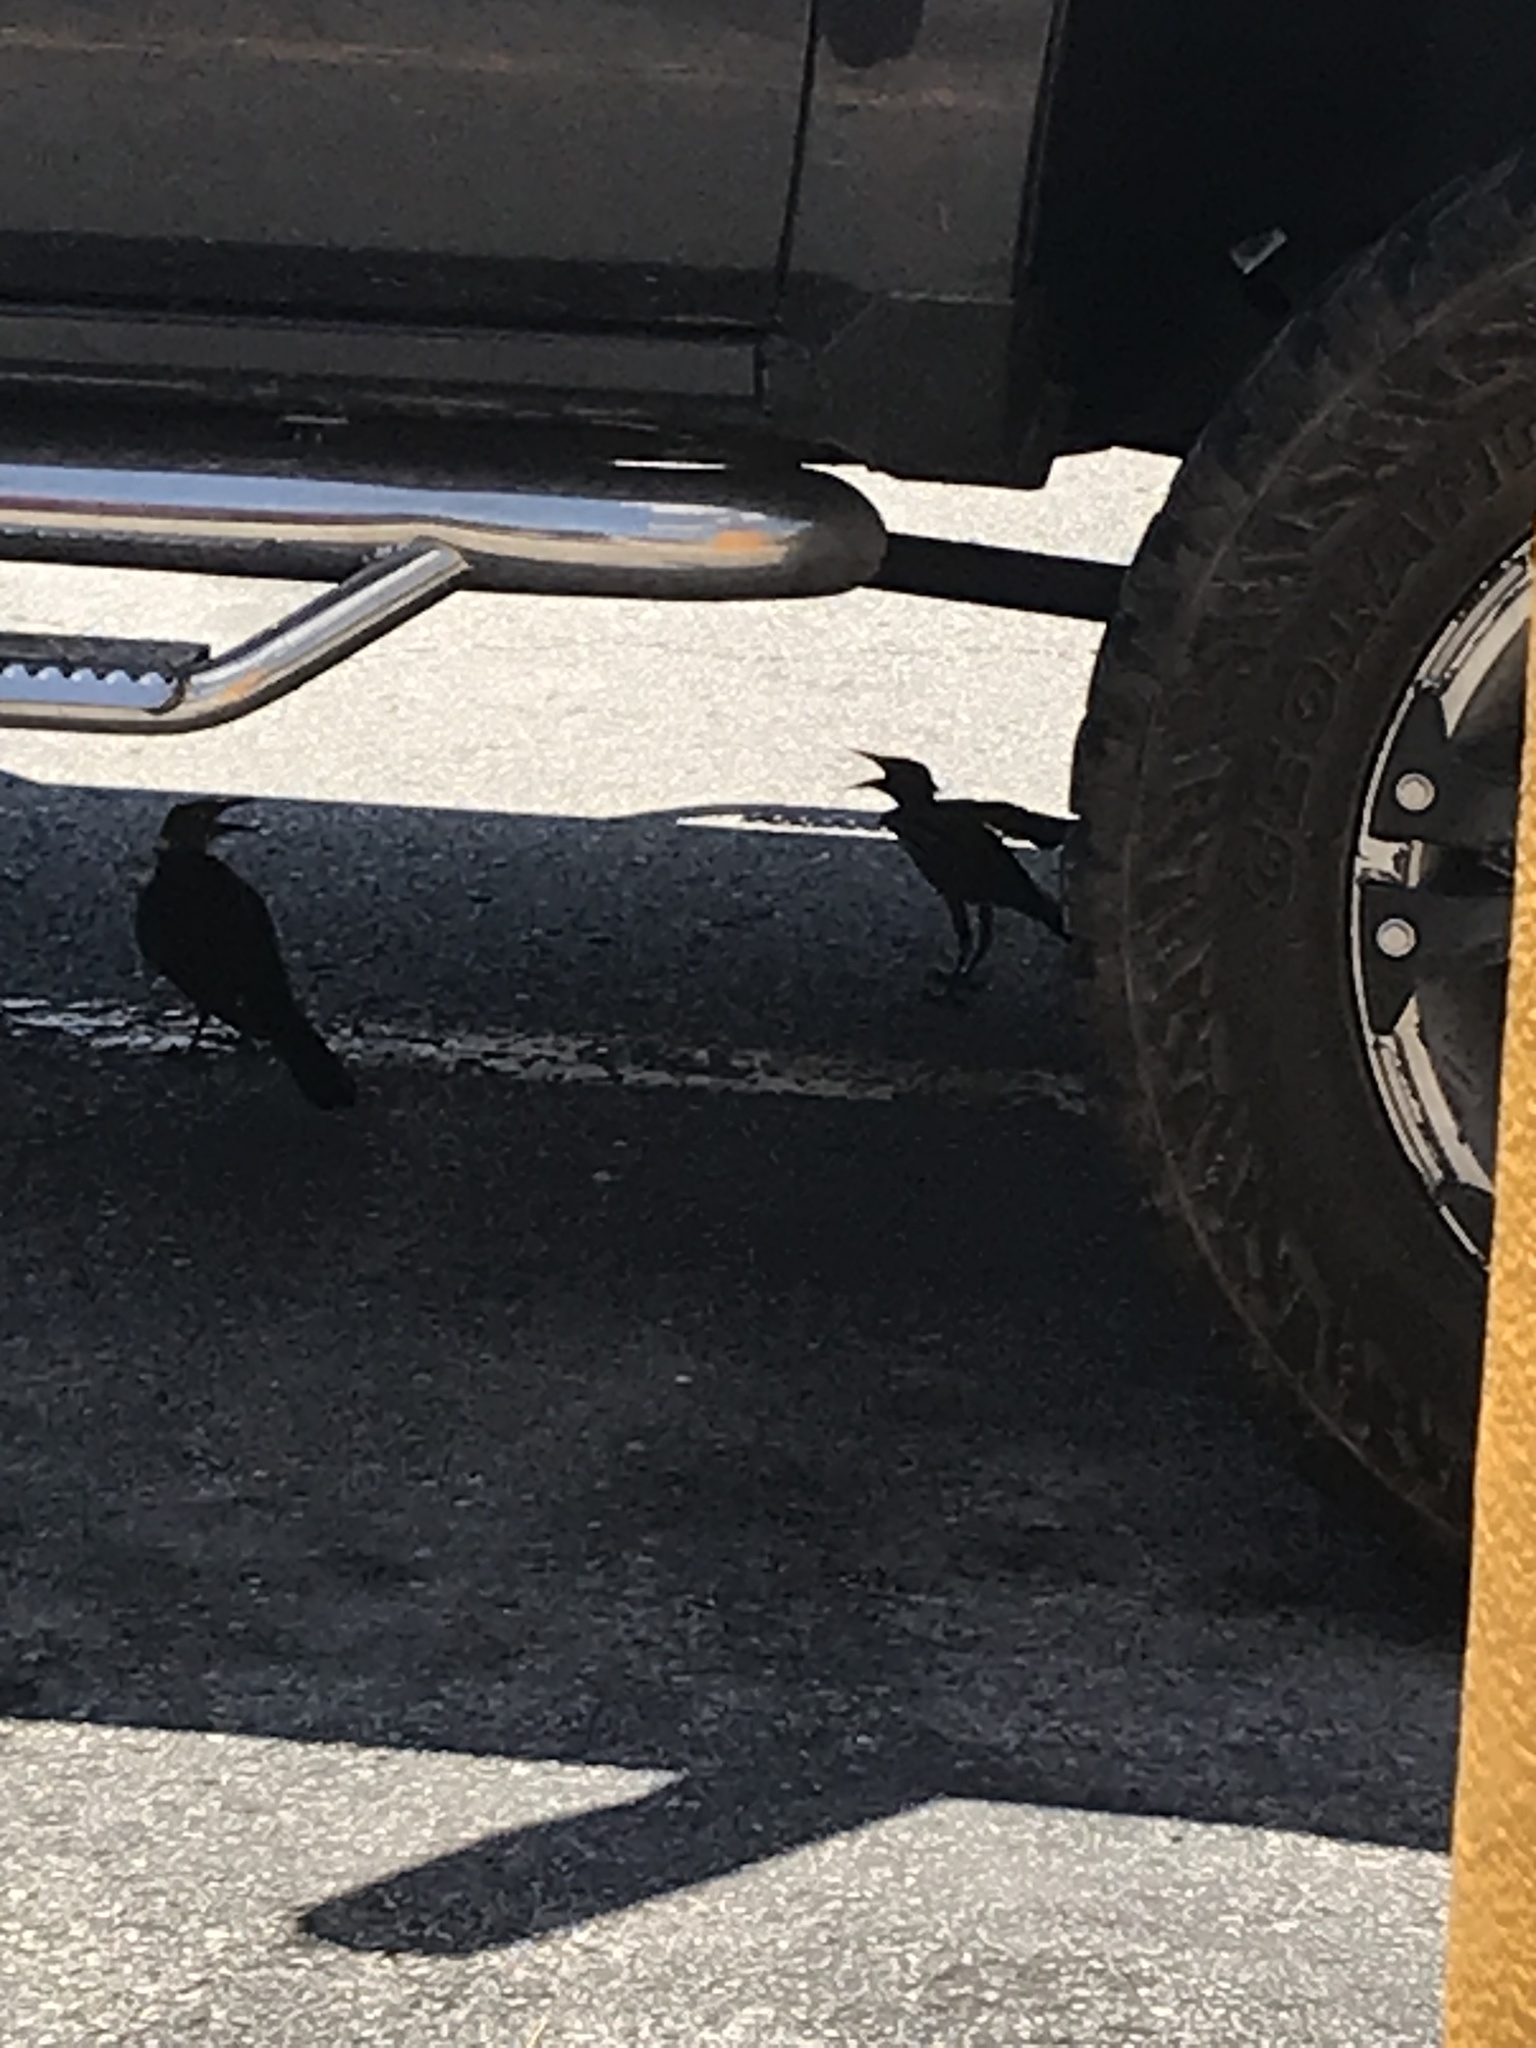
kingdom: Animalia
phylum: Chordata
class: Aves
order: Passeriformes
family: Icteridae
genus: Quiscalus
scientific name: Quiscalus mexicanus
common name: Great-tailed grackle
